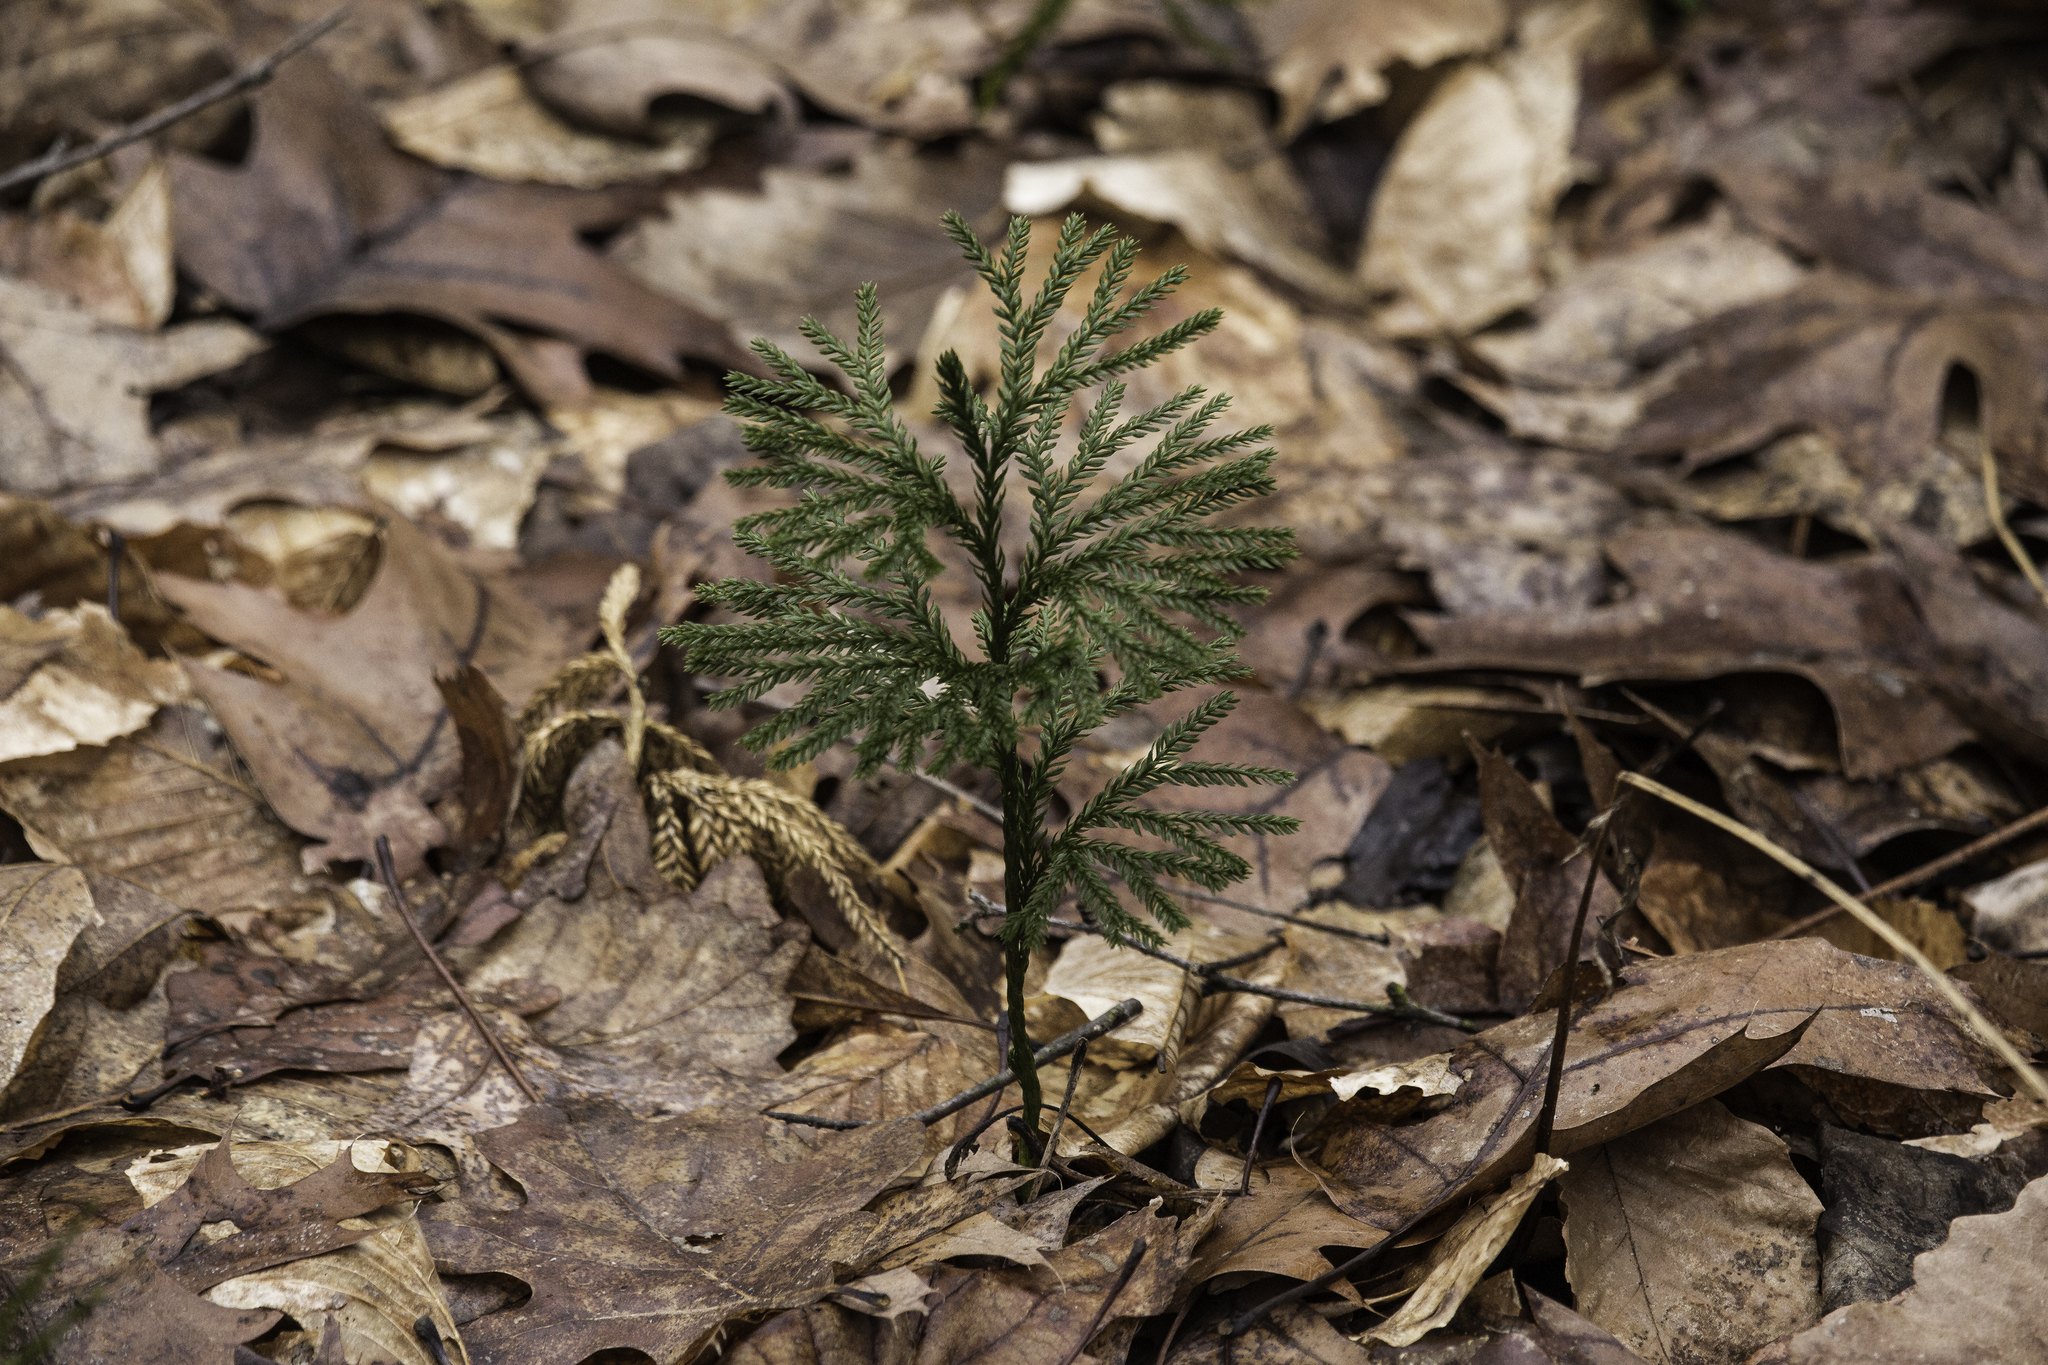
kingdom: Plantae
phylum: Tracheophyta
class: Lycopodiopsida
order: Lycopodiales
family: Lycopodiaceae
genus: Dendrolycopodium
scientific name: Dendrolycopodium obscurum
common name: Common ground-pine
